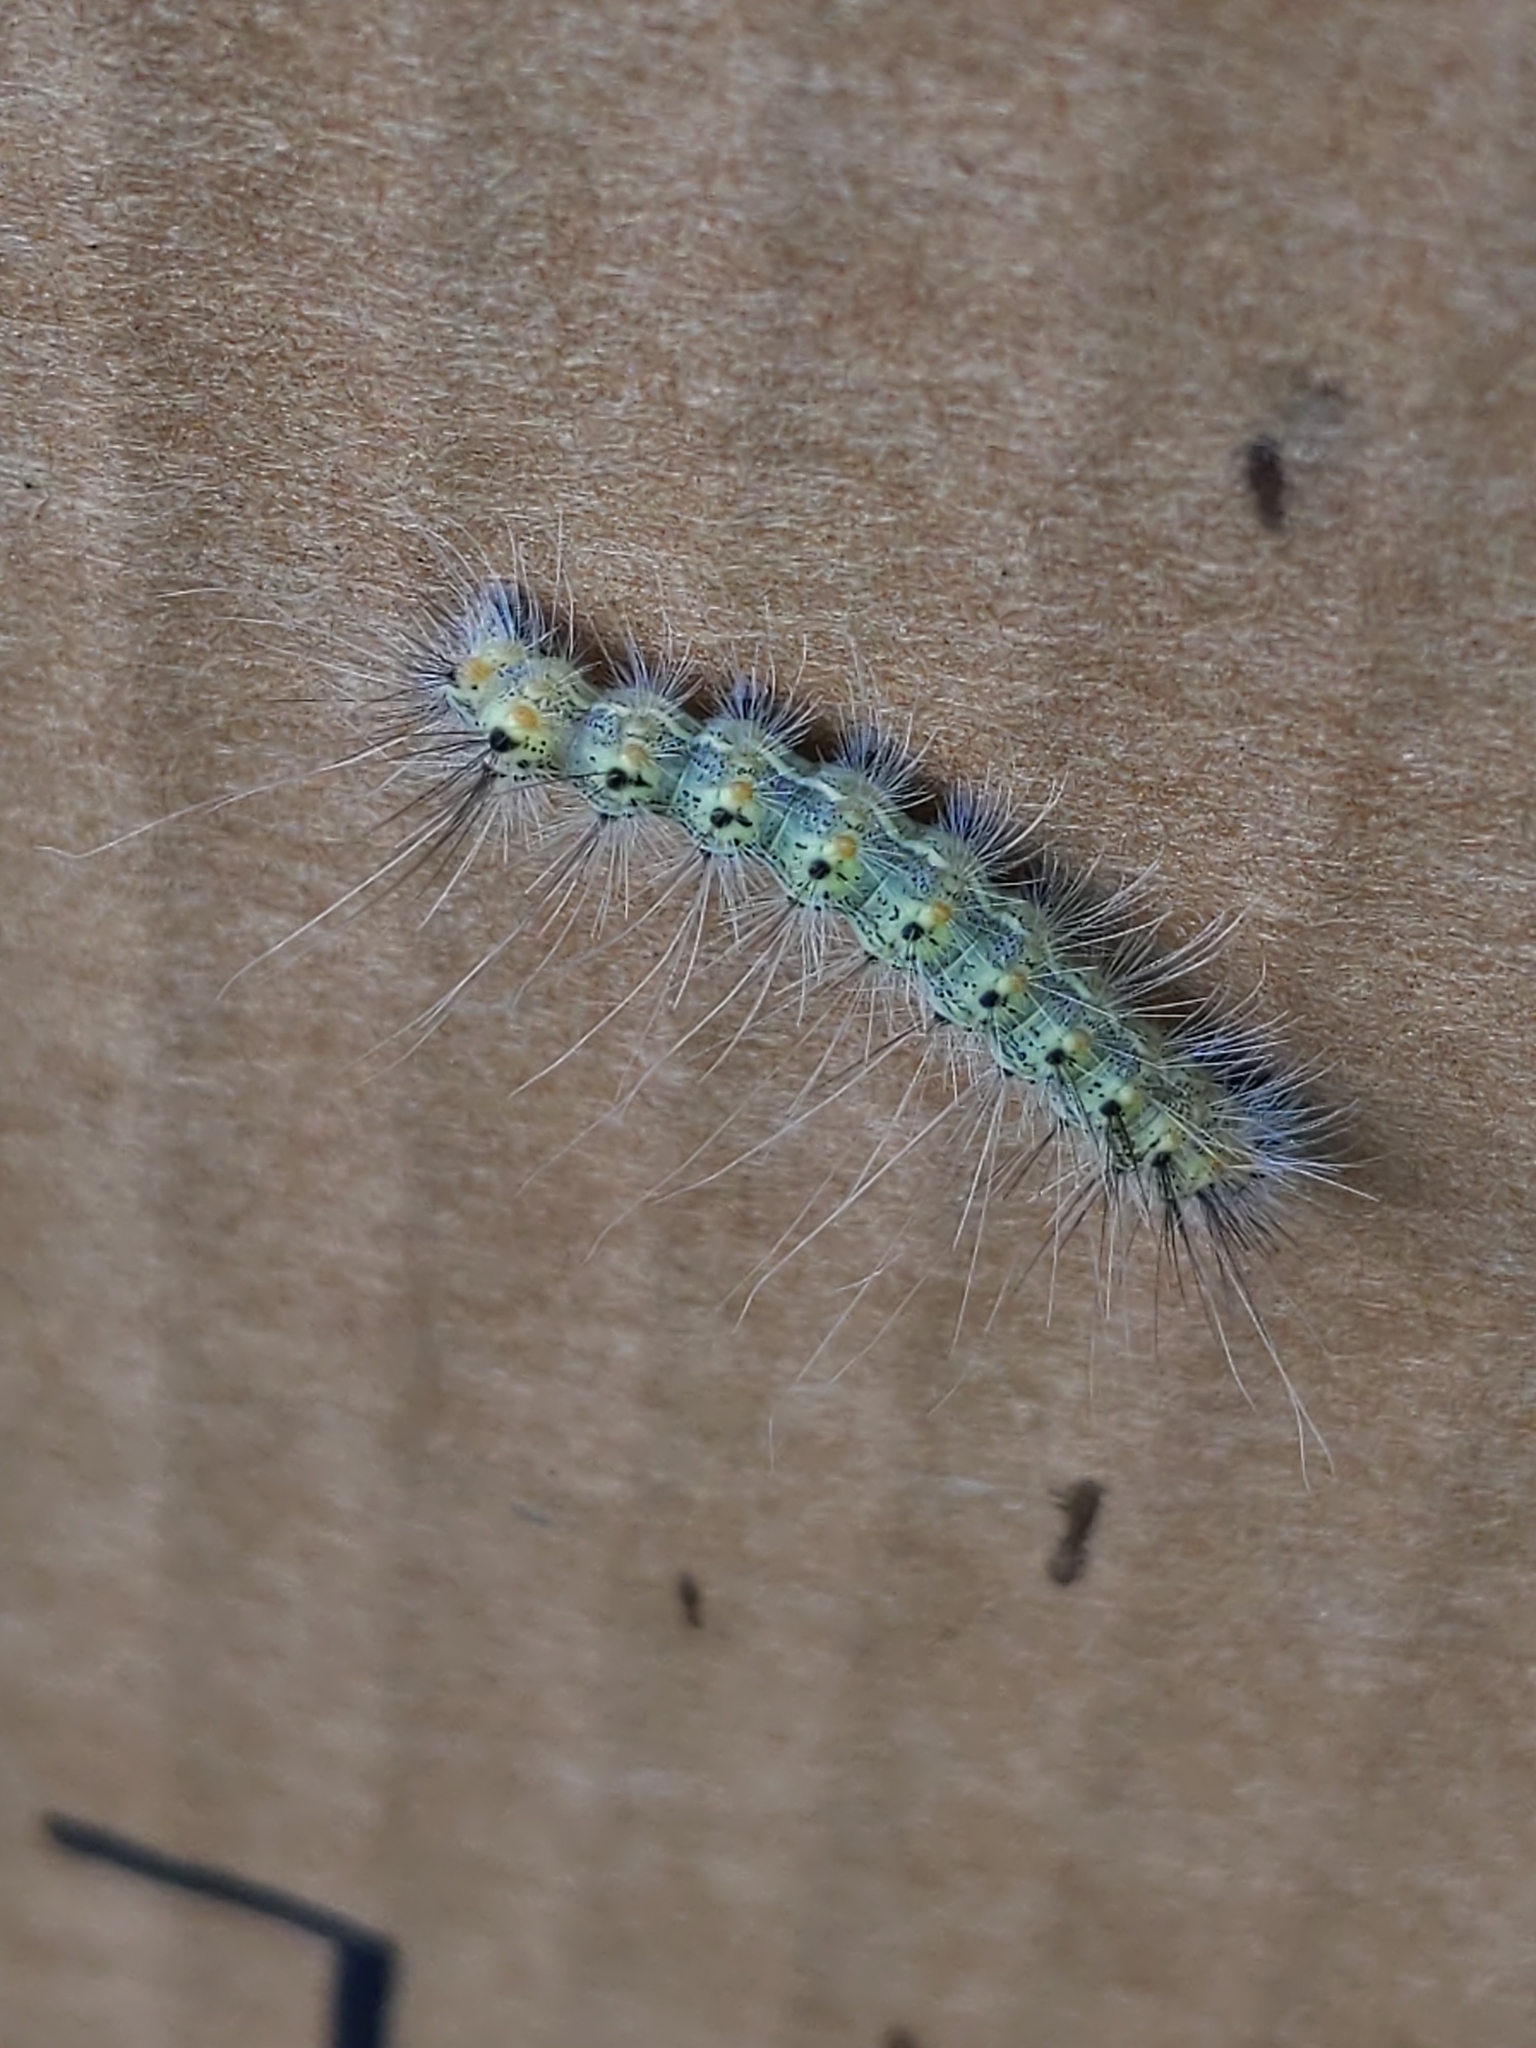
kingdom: Animalia
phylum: Arthropoda
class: Insecta
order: Lepidoptera
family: Erebidae
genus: Hyphantria
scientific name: Hyphantria cunea
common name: American white moth
